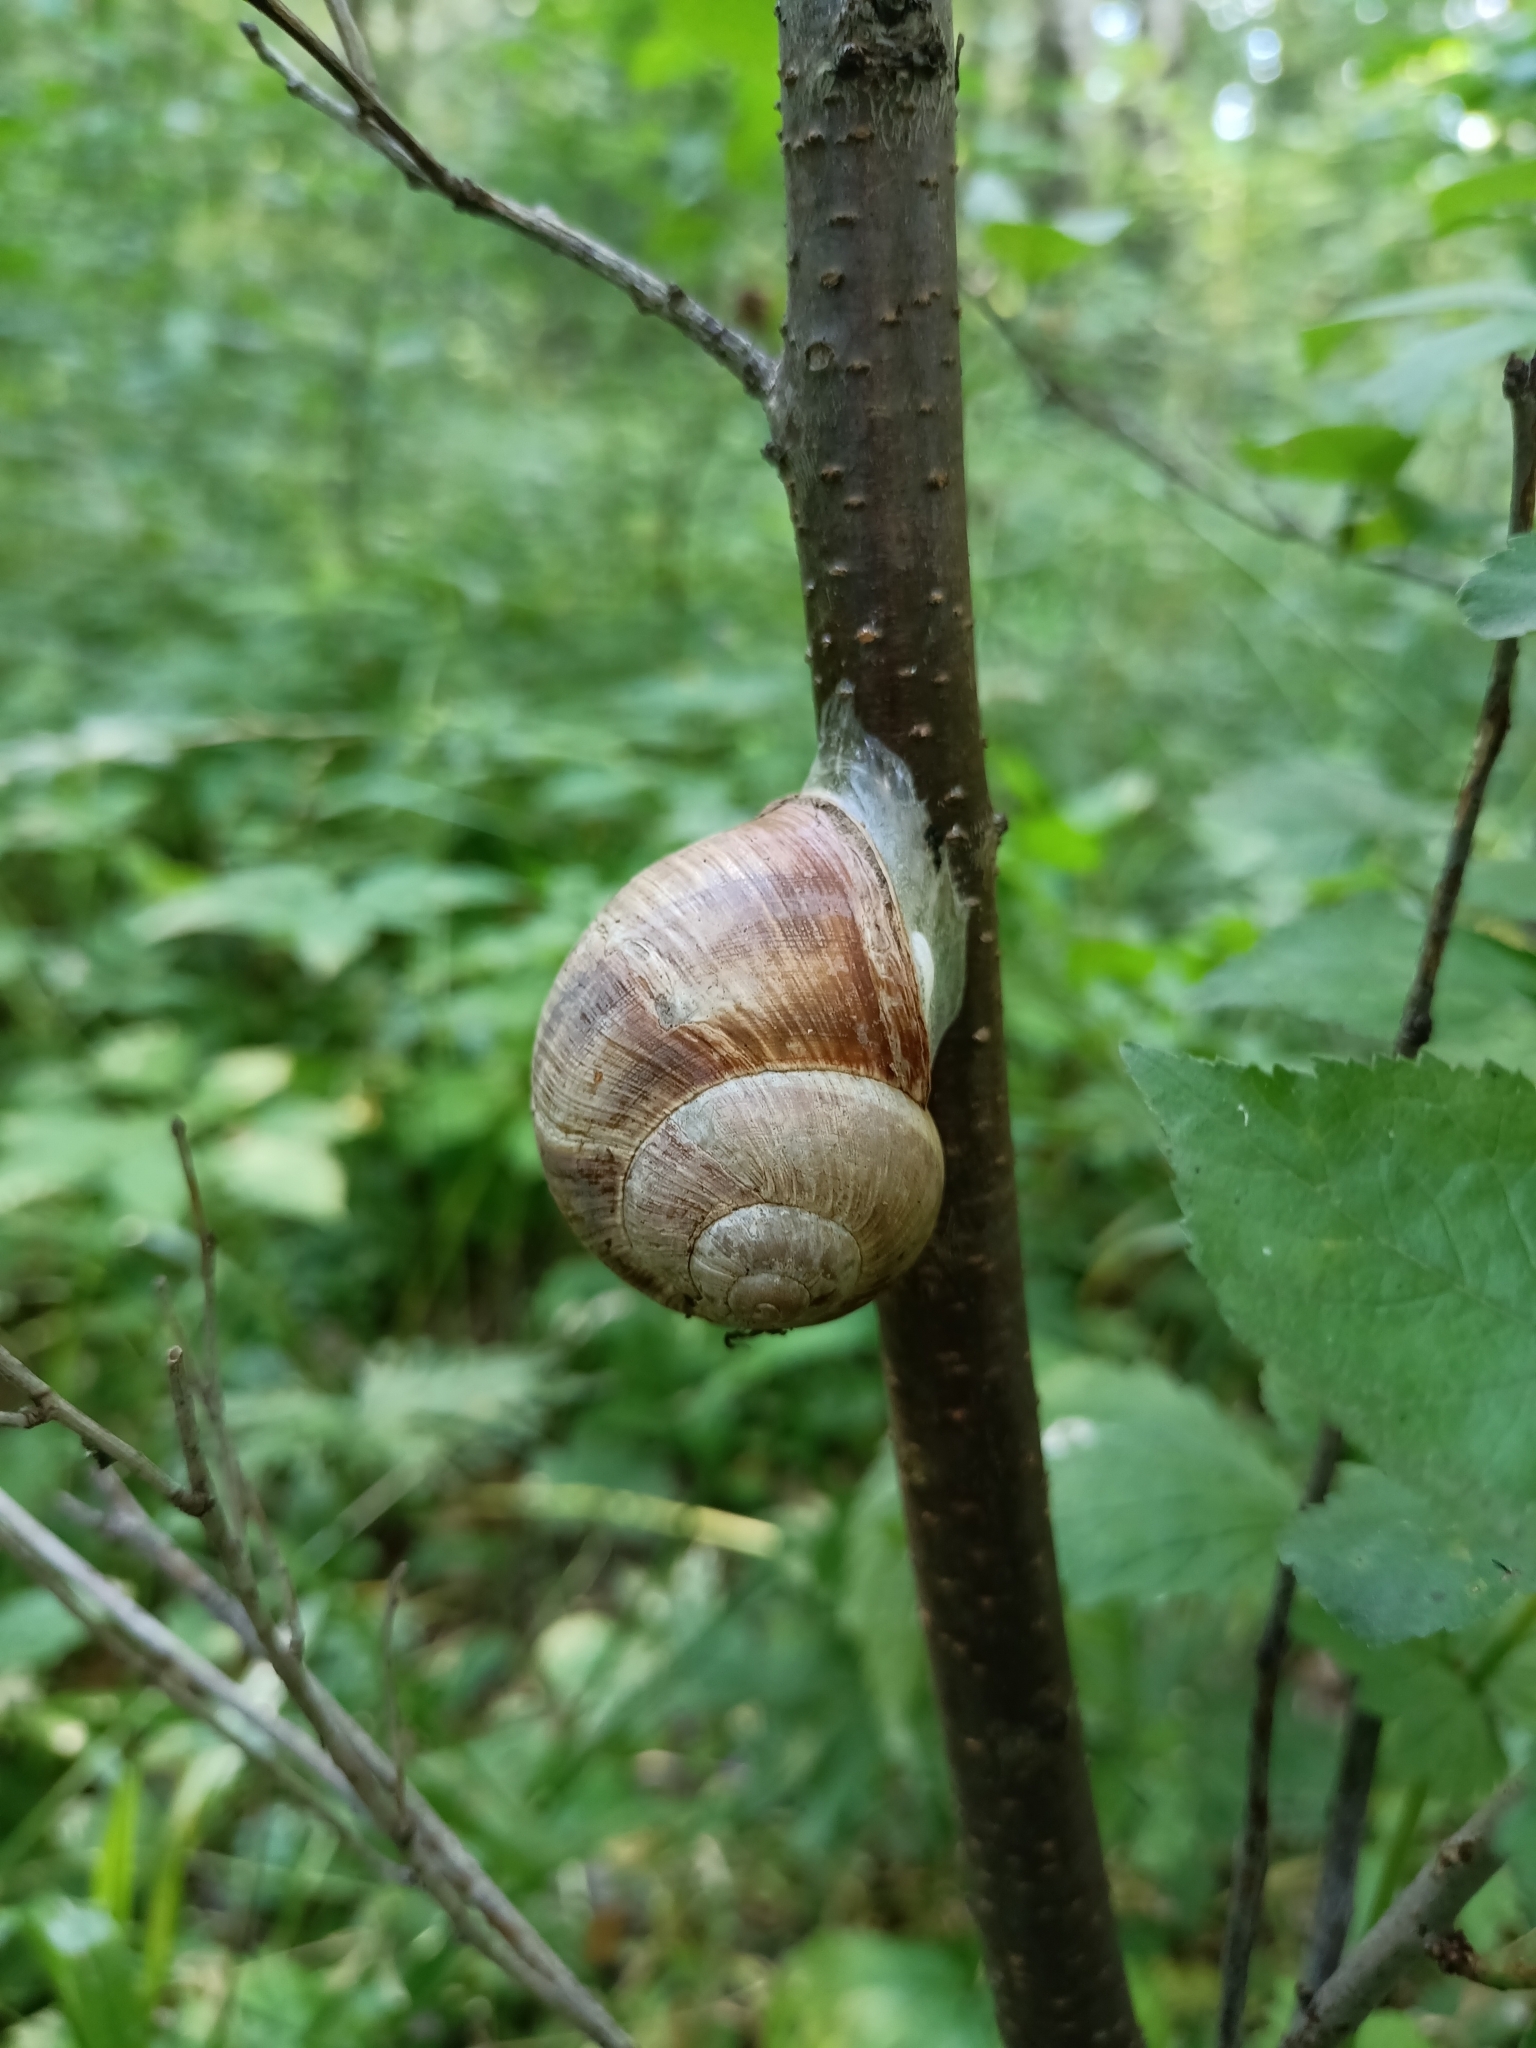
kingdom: Animalia
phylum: Mollusca
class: Gastropoda
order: Stylommatophora
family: Helicidae
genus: Helix
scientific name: Helix pomatia
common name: Roman snail
